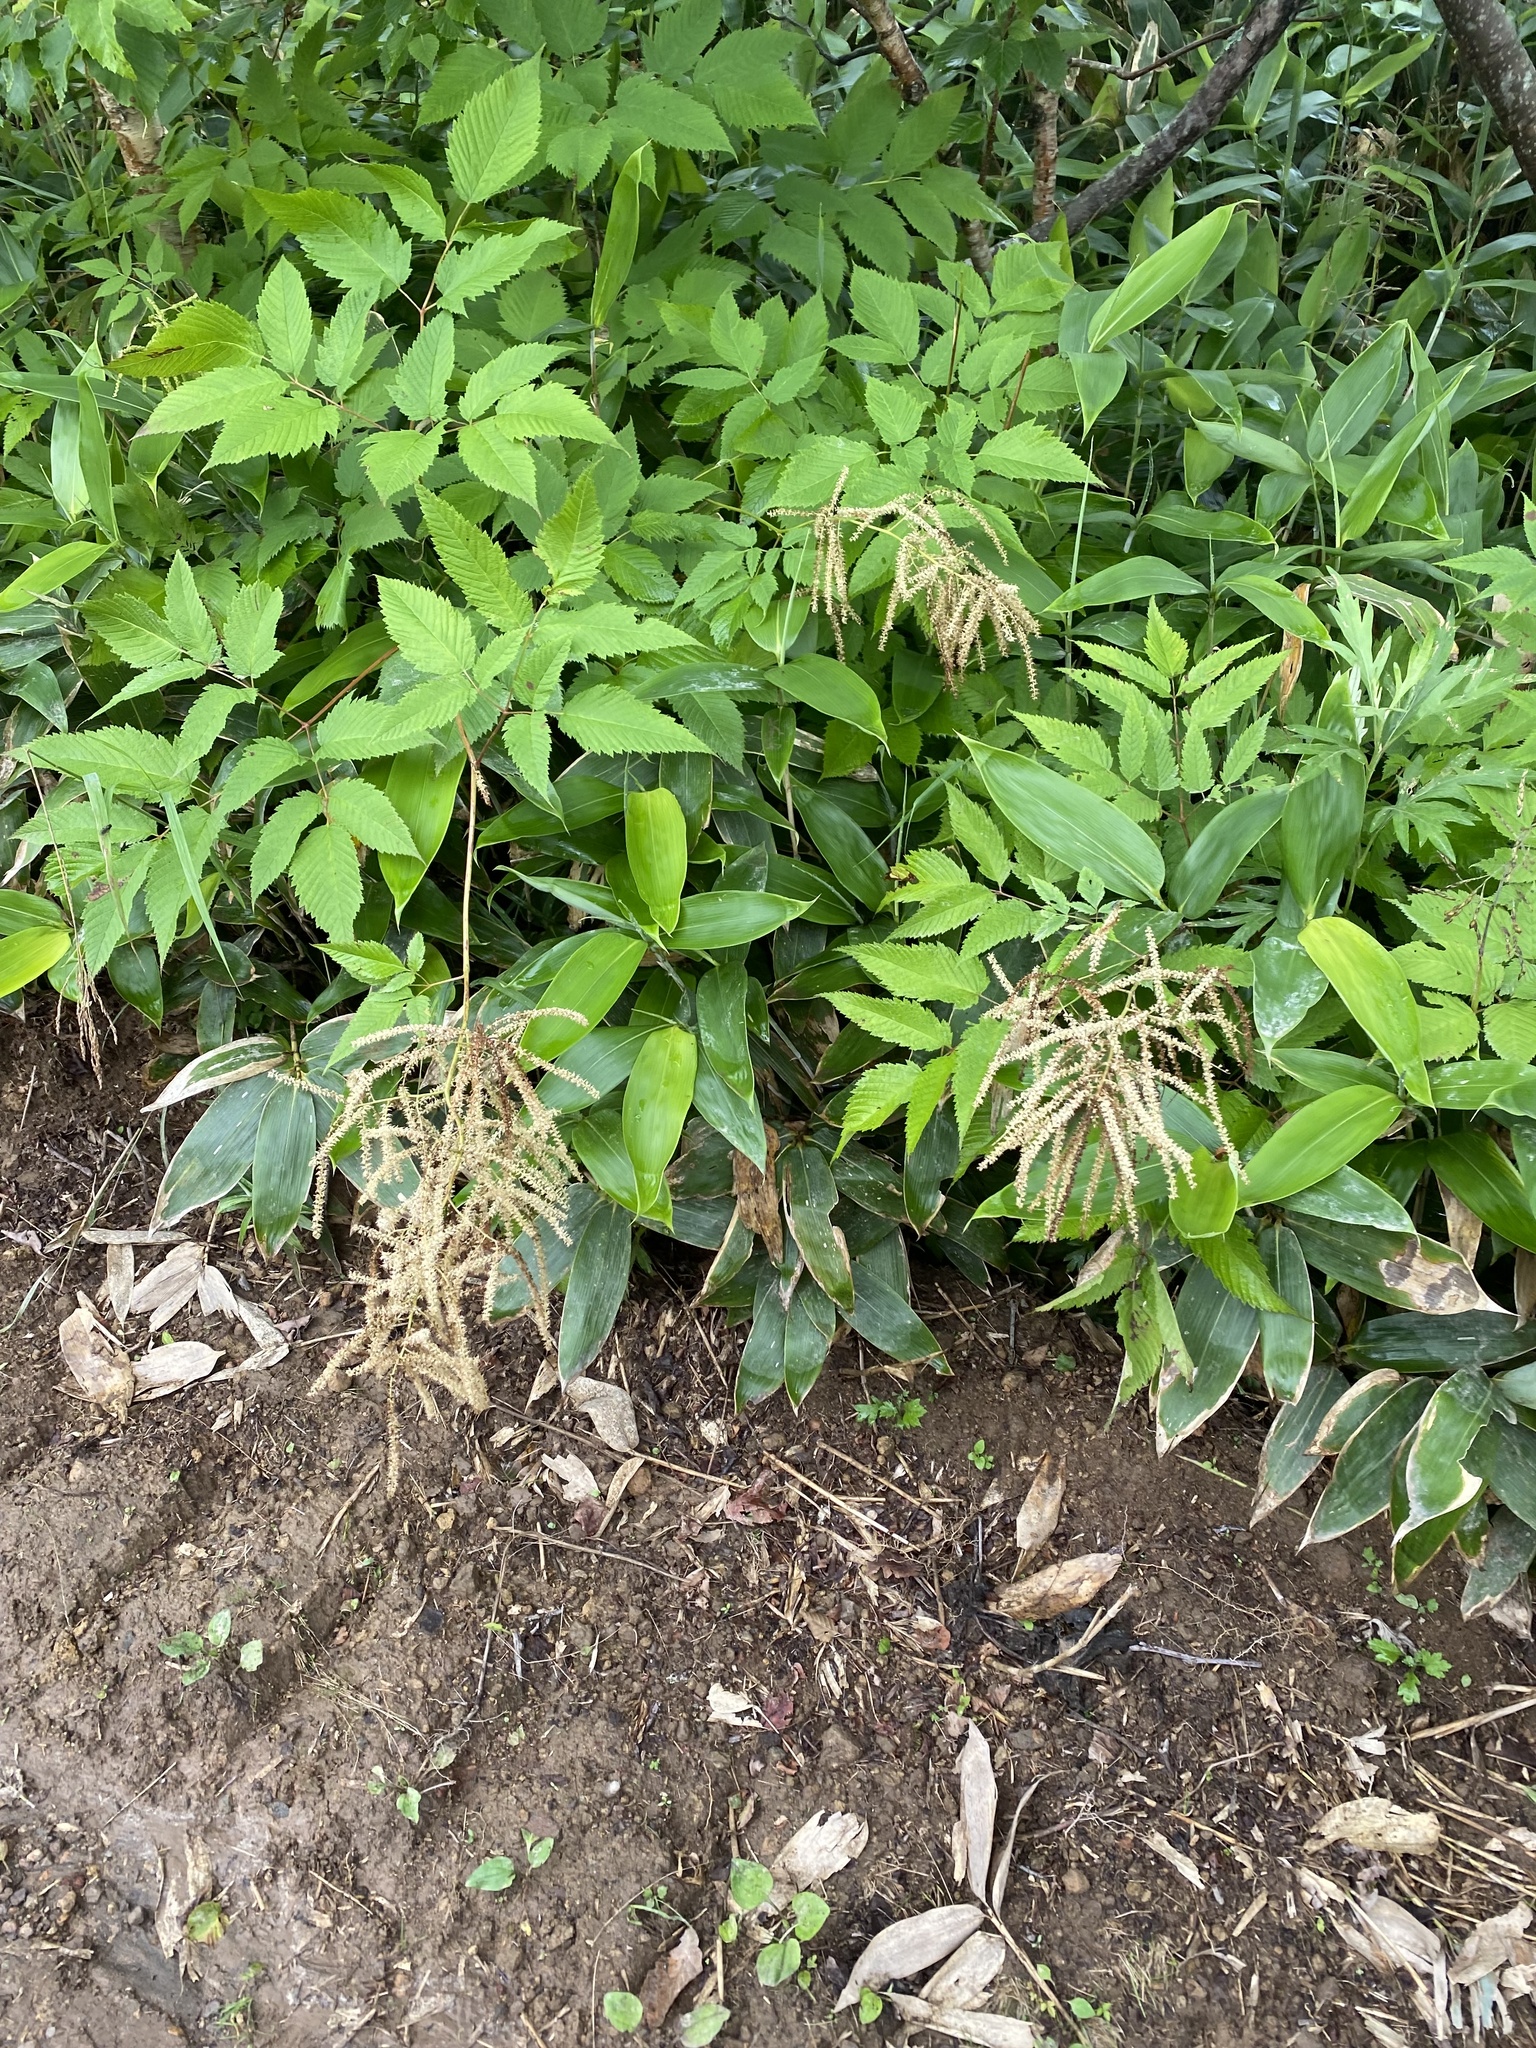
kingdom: Plantae
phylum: Tracheophyta
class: Magnoliopsida
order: Rosales
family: Rosaceae
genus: Aruncus
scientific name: Aruncus dioicus
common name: Buck's-beard
